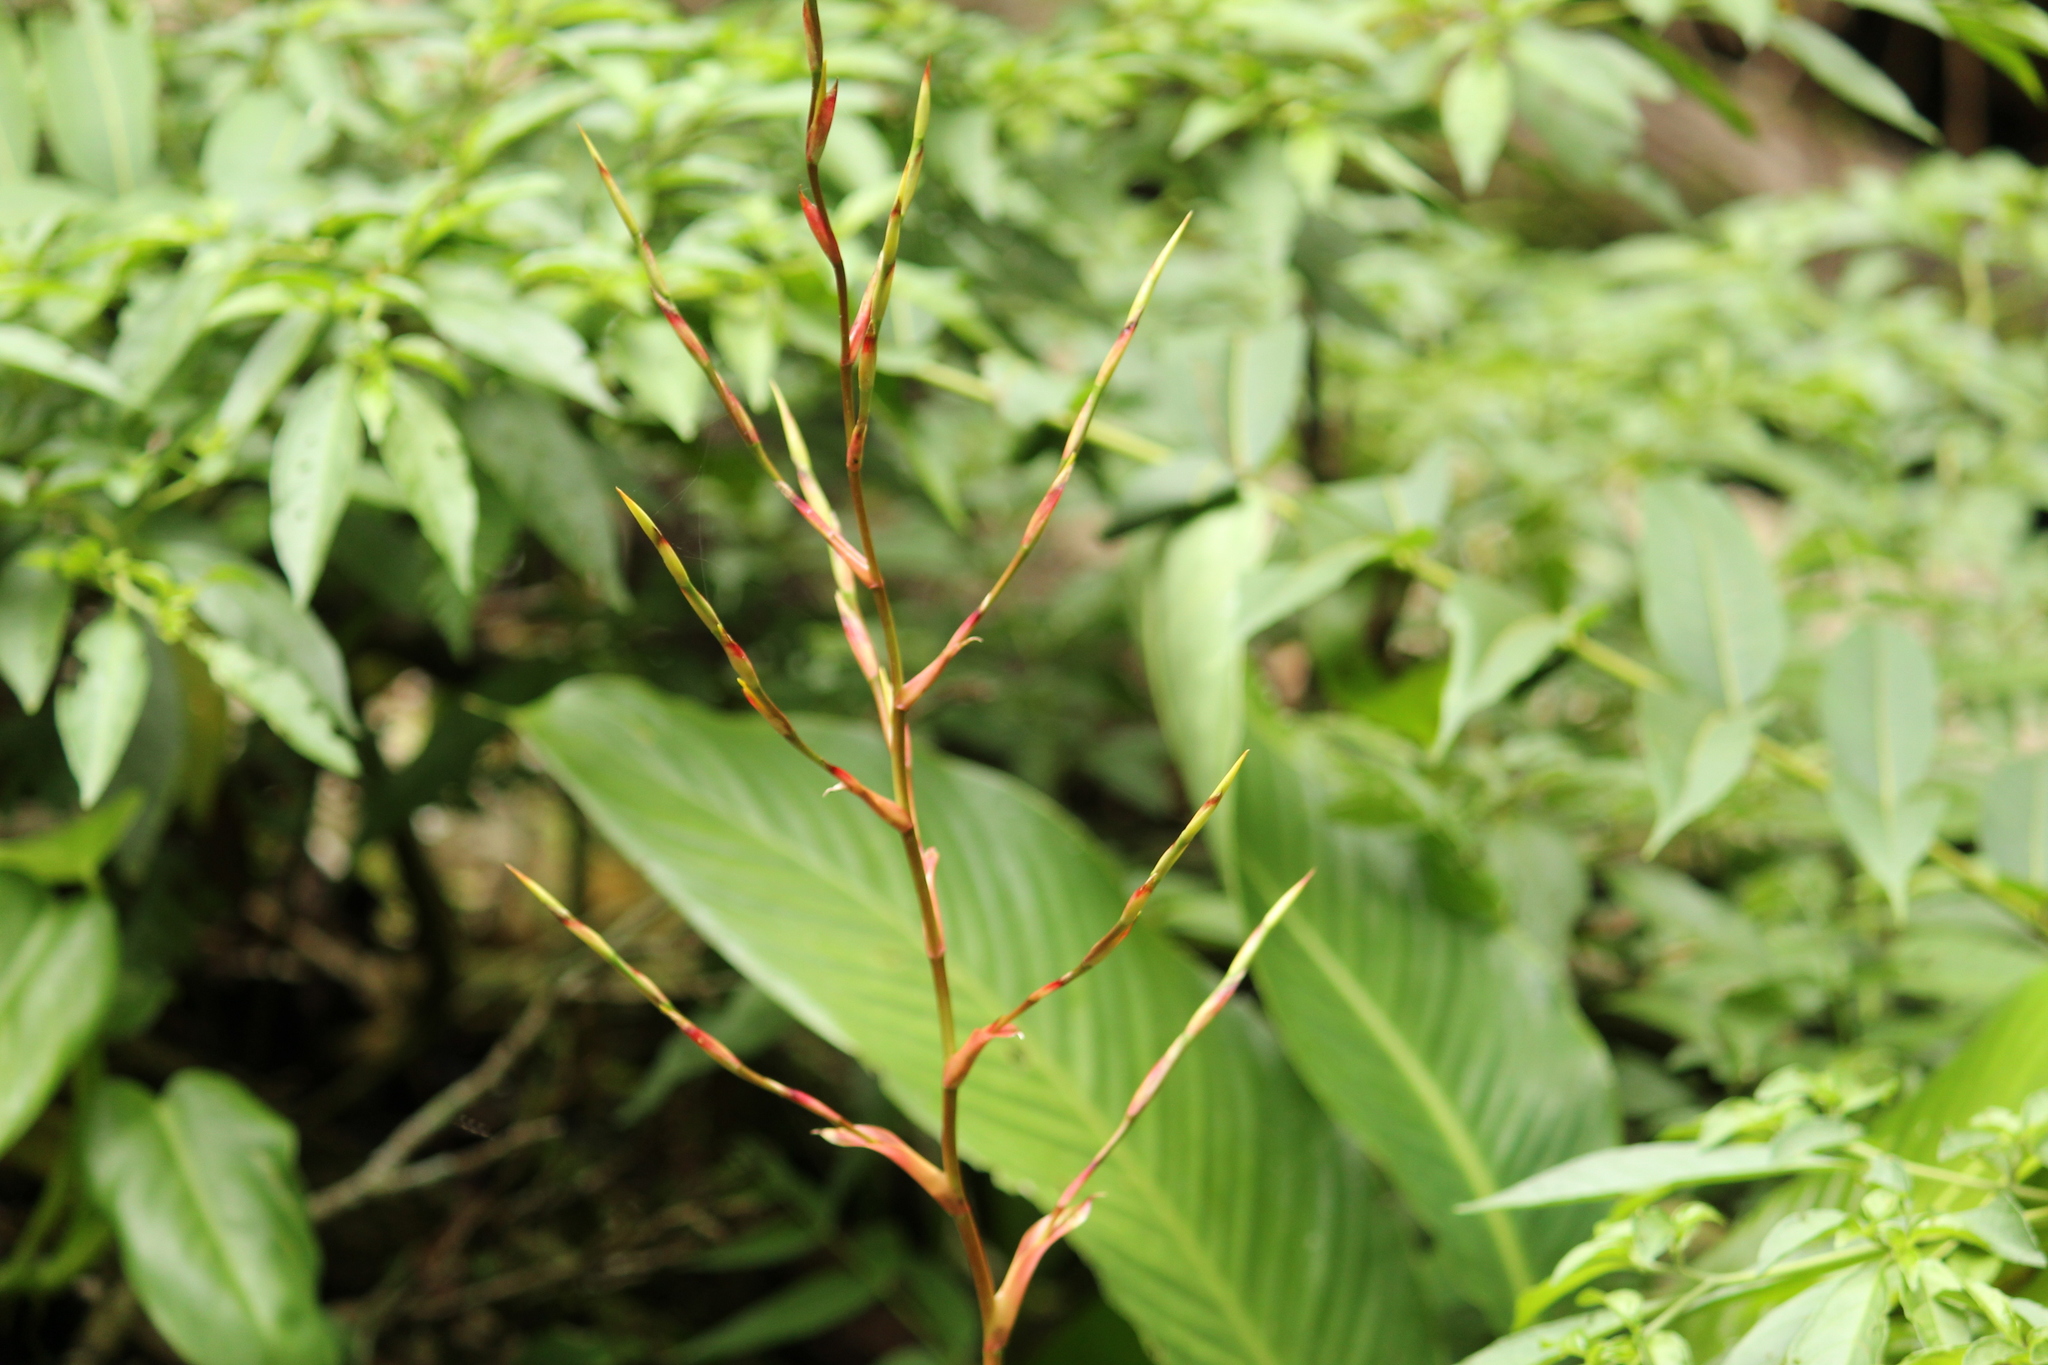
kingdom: Plantae
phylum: Tracheophyta
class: Liliopsida
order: Poales
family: Bromeliaceae
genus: Vriesea
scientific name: Vriesea vagans
